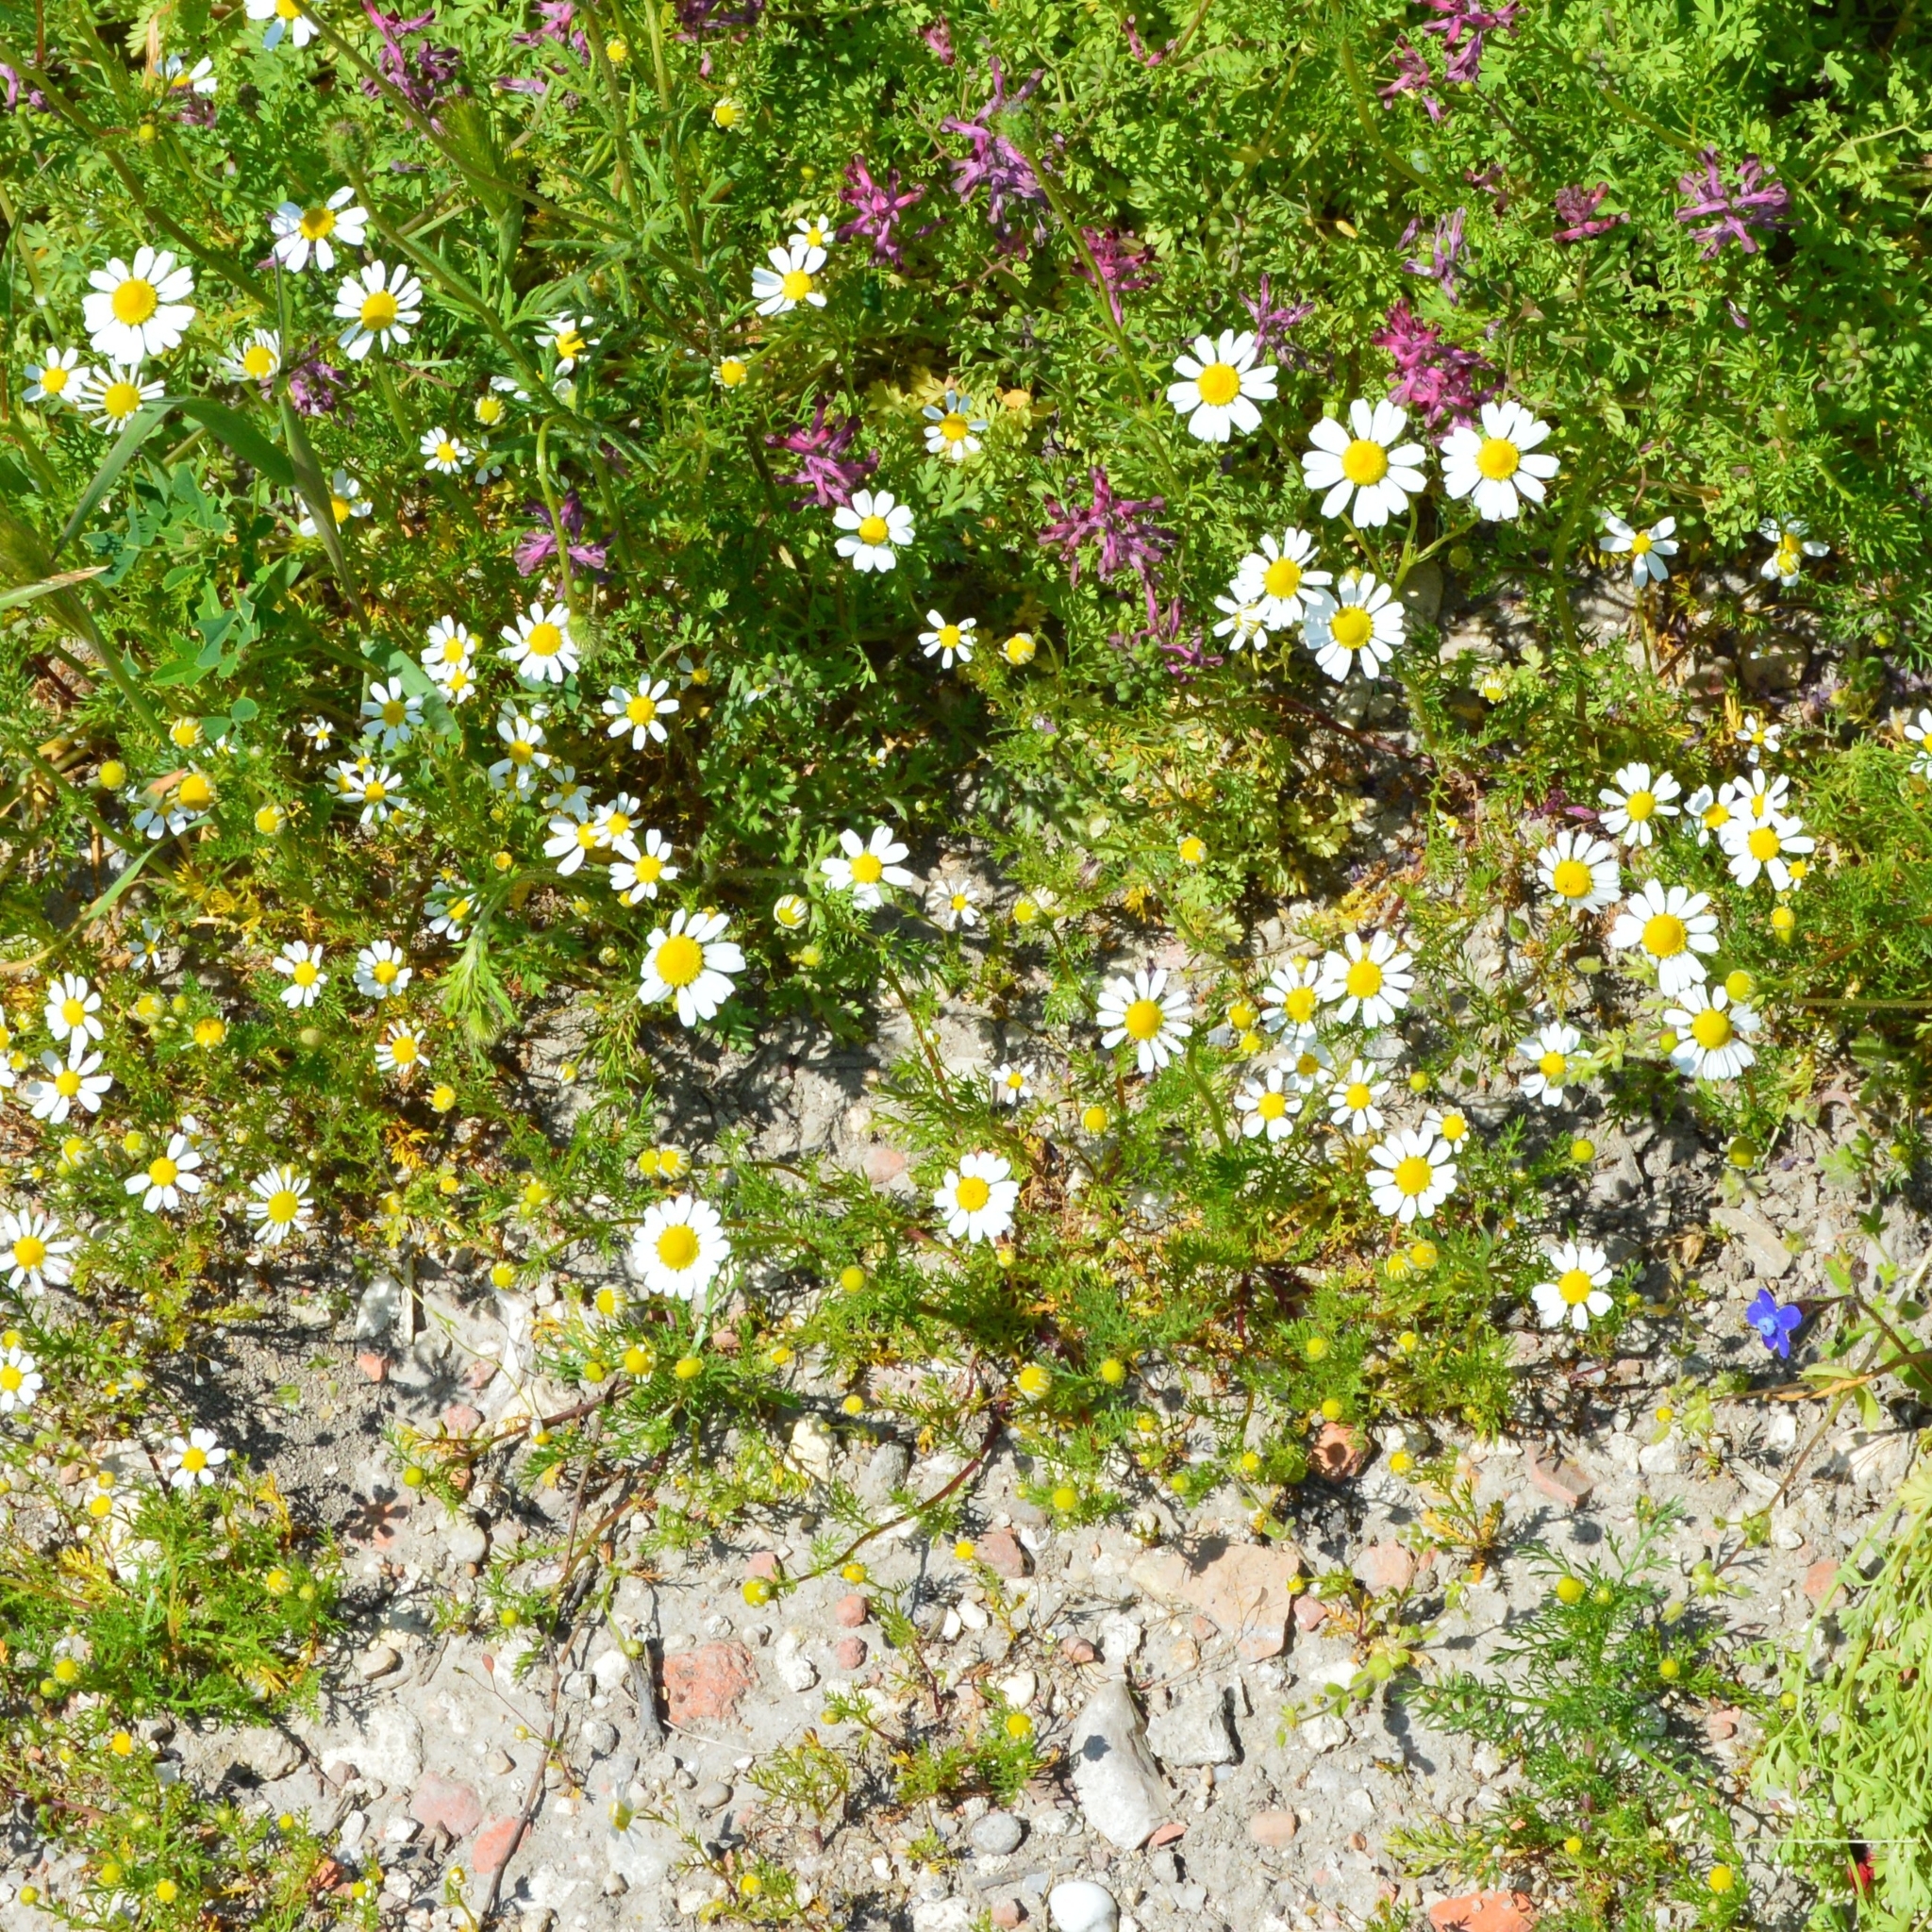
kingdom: Plantae
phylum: Tracheophyta
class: Magnoliopsida
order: Asterales
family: Asteraceae
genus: Matricaria
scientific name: Matricaria chamomilla
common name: Scented mayweed
